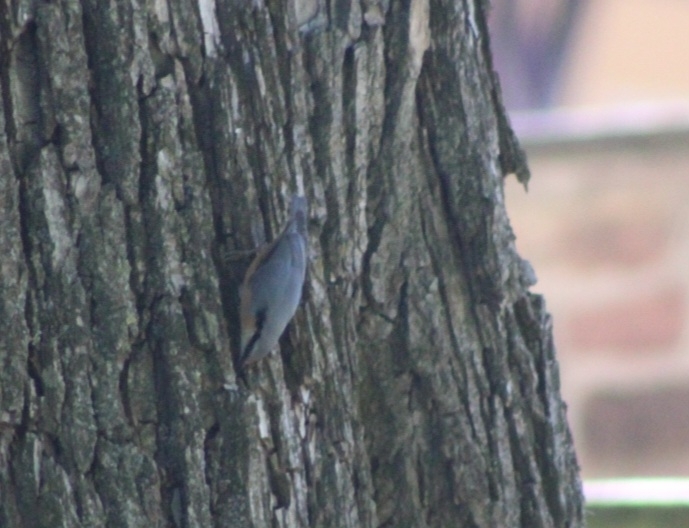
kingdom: Animalia
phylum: Chordata
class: Aves
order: Passeriformes
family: Sittidae
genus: Sitta
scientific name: Sitta europaea
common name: Eurasian nuthatch
